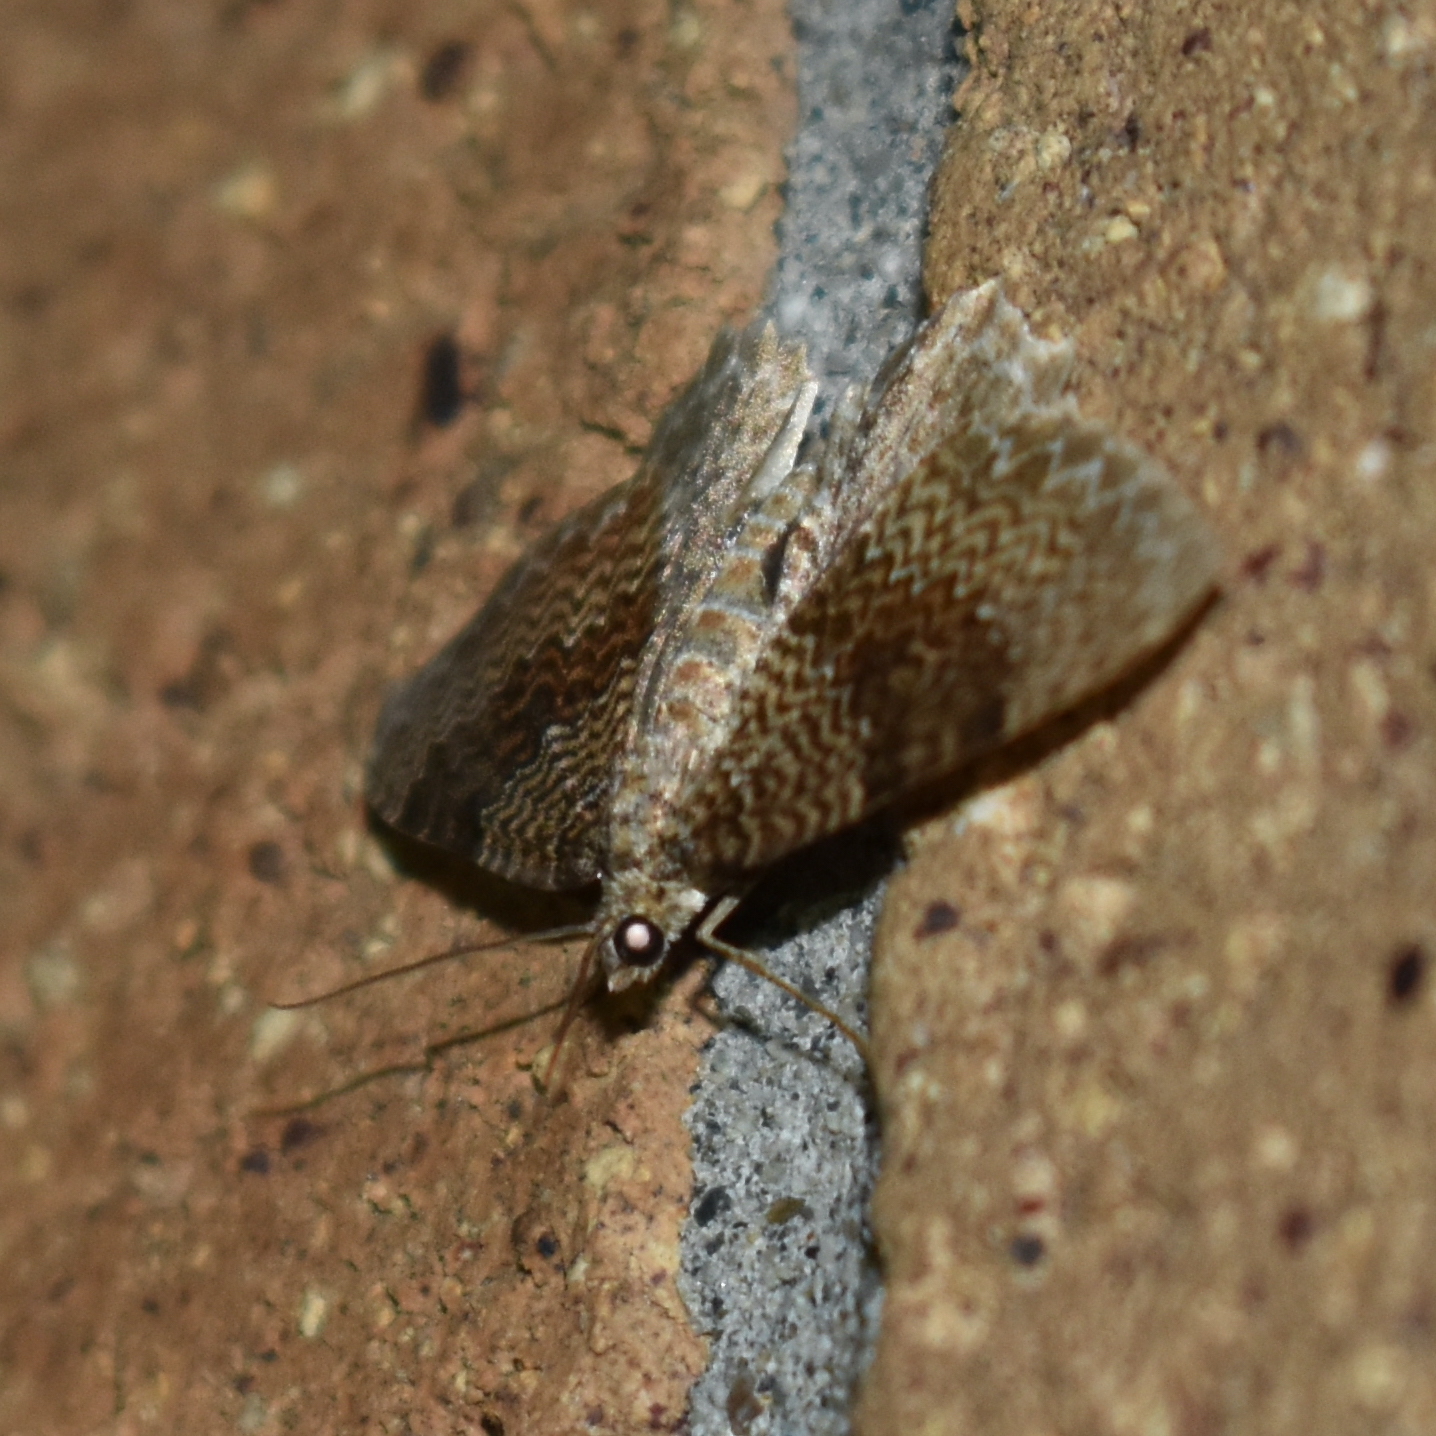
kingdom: Animalia
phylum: Arthropoda
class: Insecta
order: Lepidoptera
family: Geometridae
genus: Rheumaptera
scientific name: Rheumaptera undulata
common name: Scallop shell
